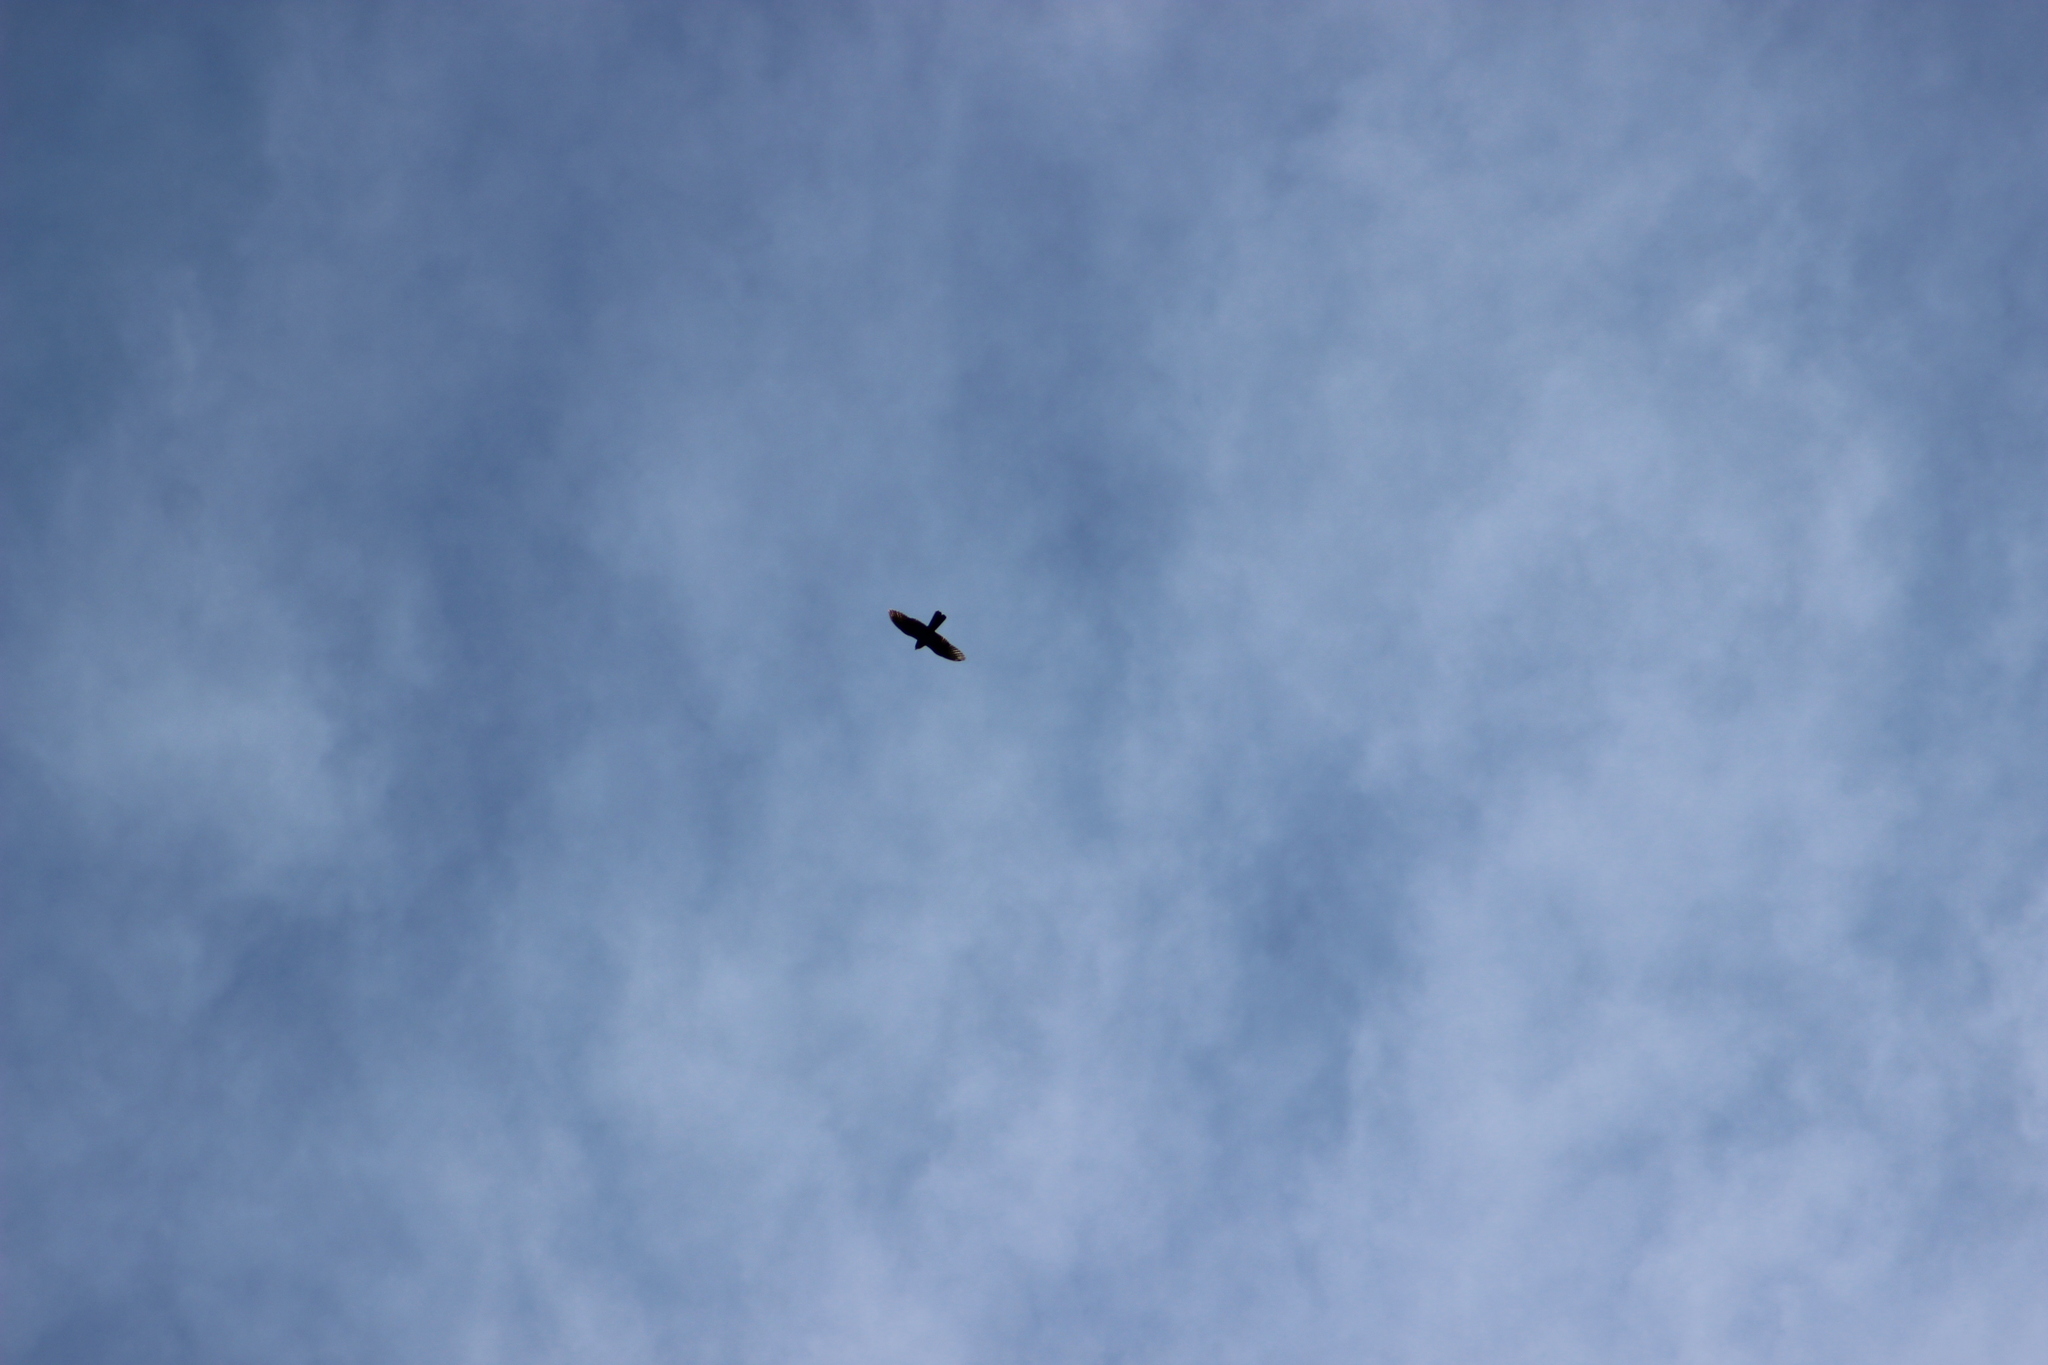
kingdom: Animalia
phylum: Chordata
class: Aves
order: Falconiformes
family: Falconidae
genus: Falco
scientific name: Falco novaeseelandiae
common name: New zealand falcon
